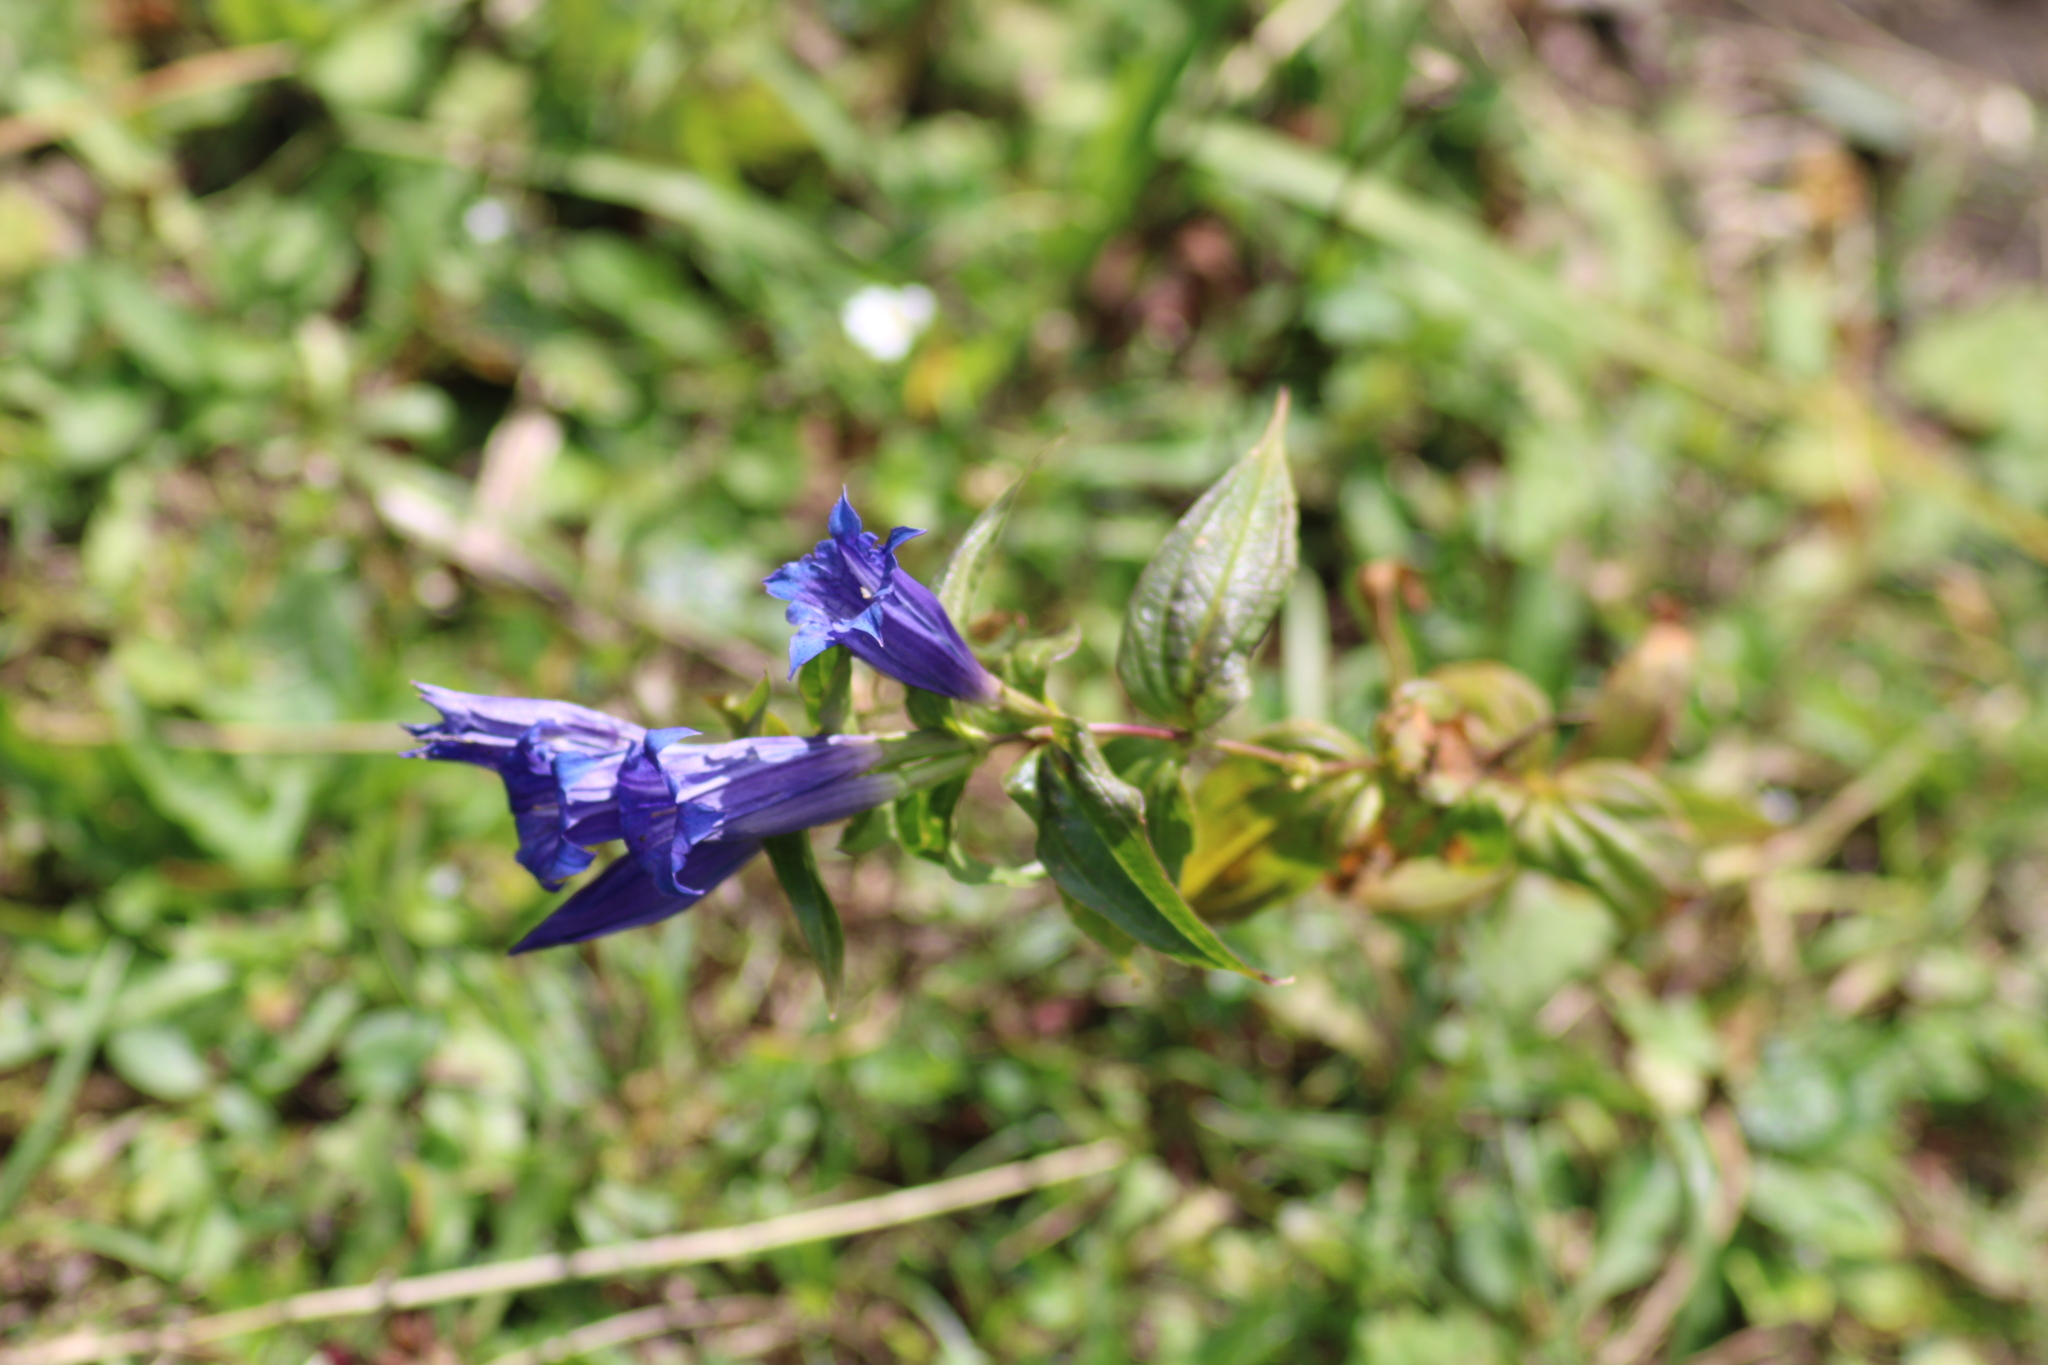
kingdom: Plantae
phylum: Tracheophyta
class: Magnoliopsida
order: Gentianales
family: Gentianaceae
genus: Gentiana
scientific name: Gentiana asclepiadea
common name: Willow gentian
